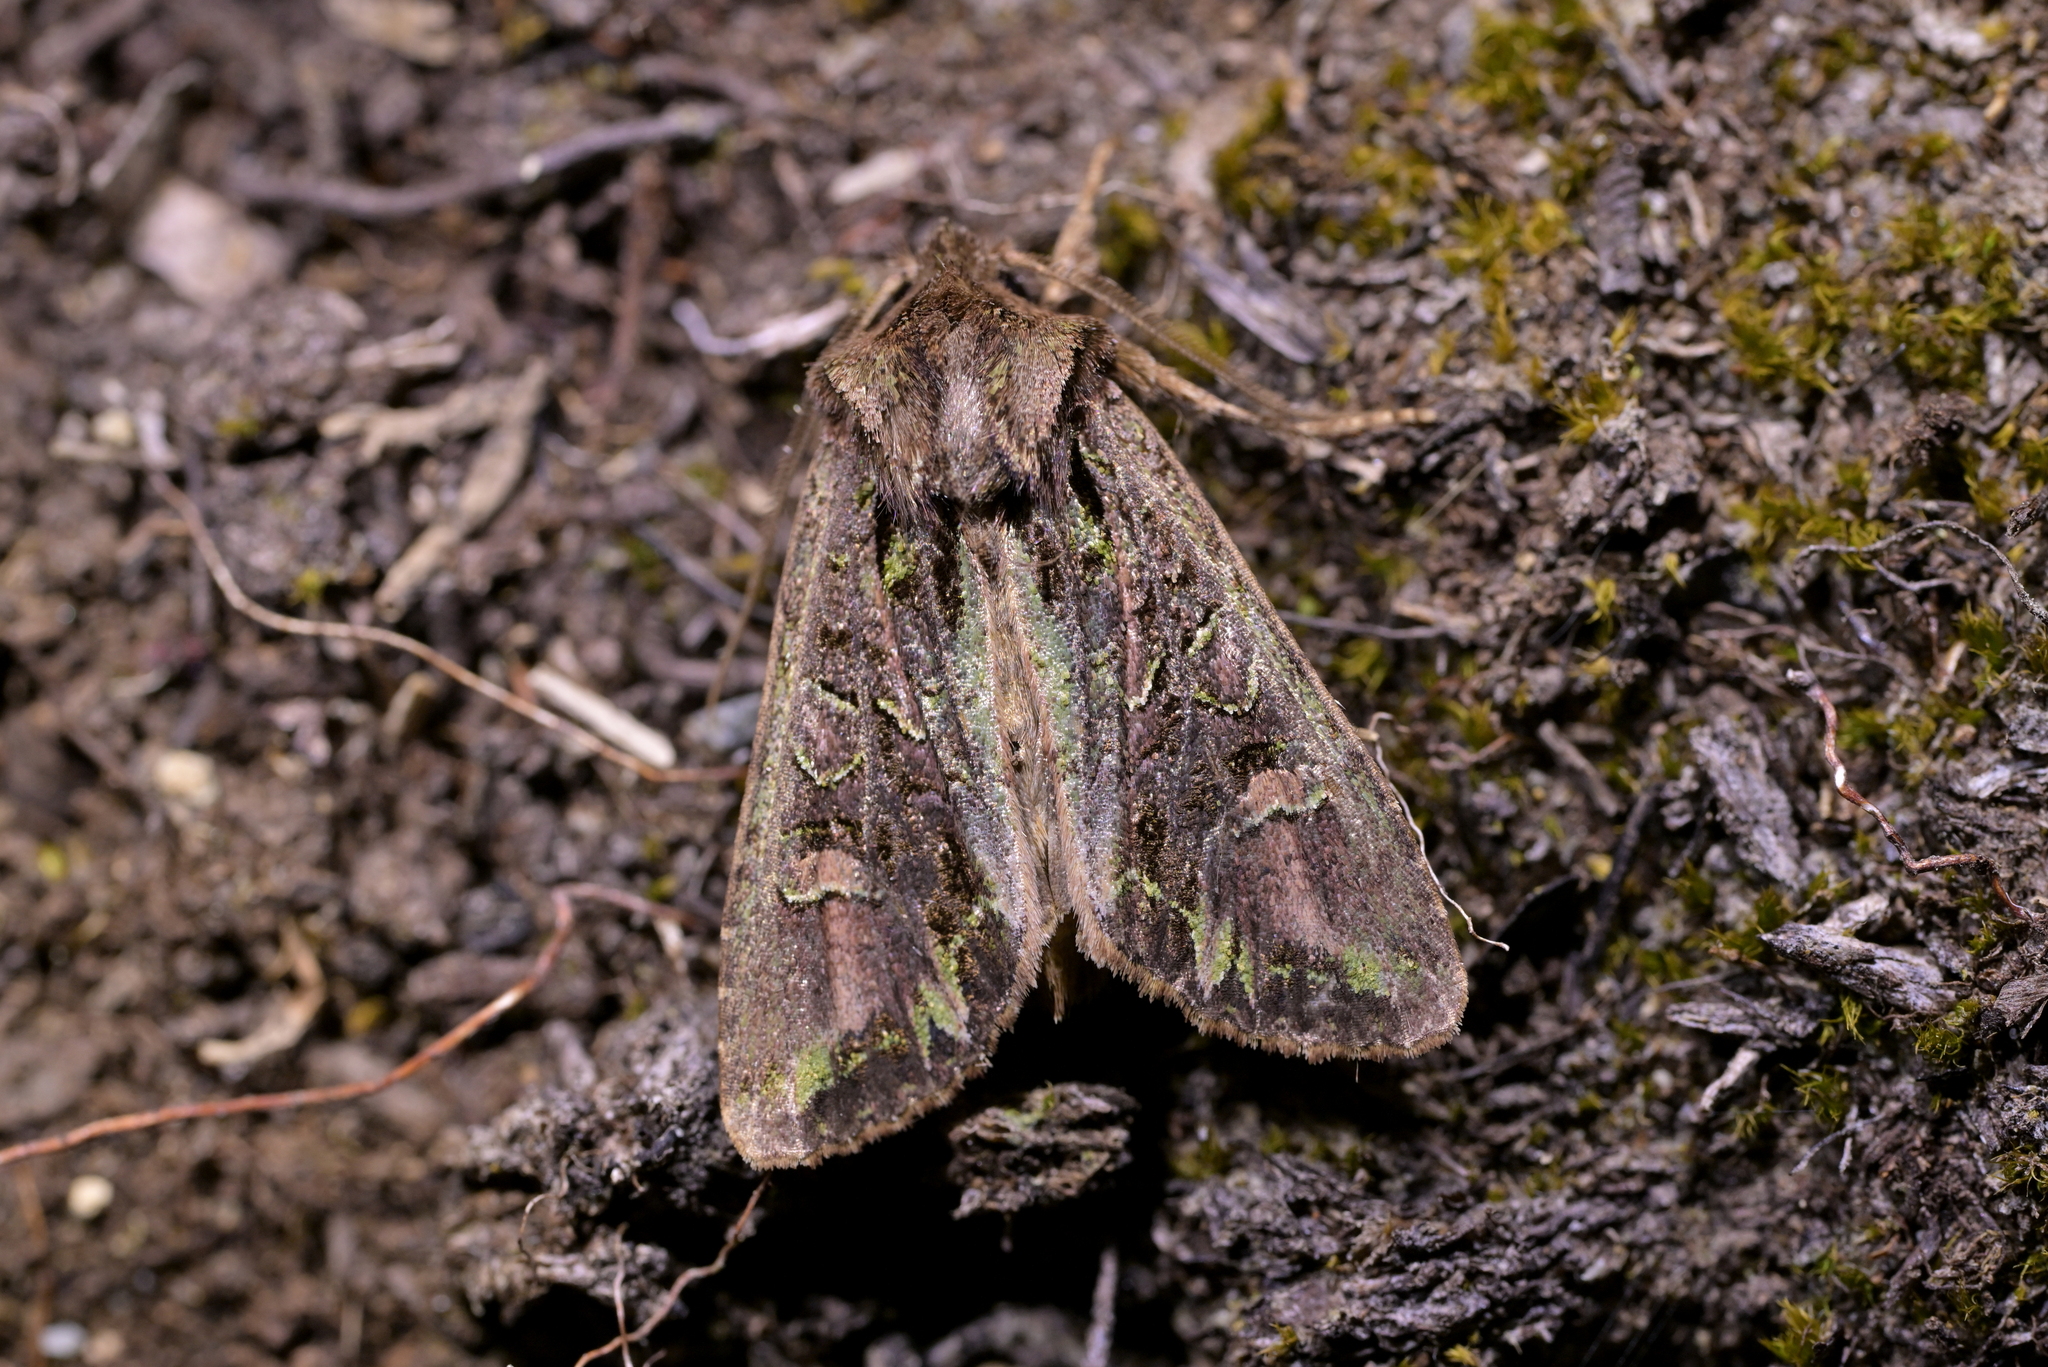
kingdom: Animalia
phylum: Arthropoda
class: Insecta
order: Lepidoptera
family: Noctuidae
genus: Ichneutica
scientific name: Ichneutica insignis
